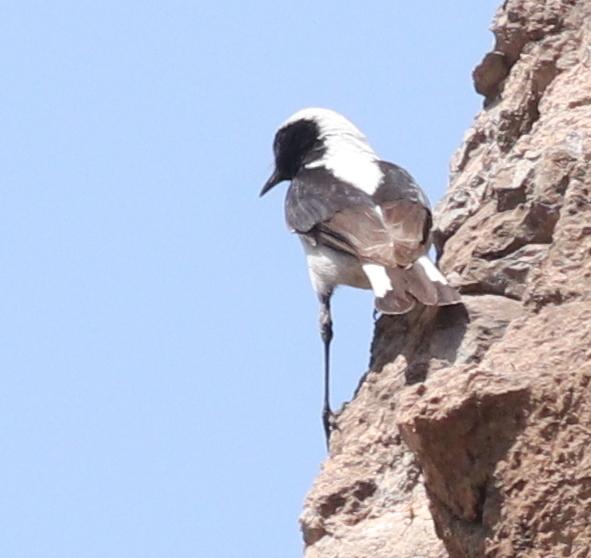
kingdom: Animalia
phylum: Chordata
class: Aves
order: Passeriformes
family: Muscicapidae
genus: Oenanthe
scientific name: Oenanthe finschii
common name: Finsch's wheatear
